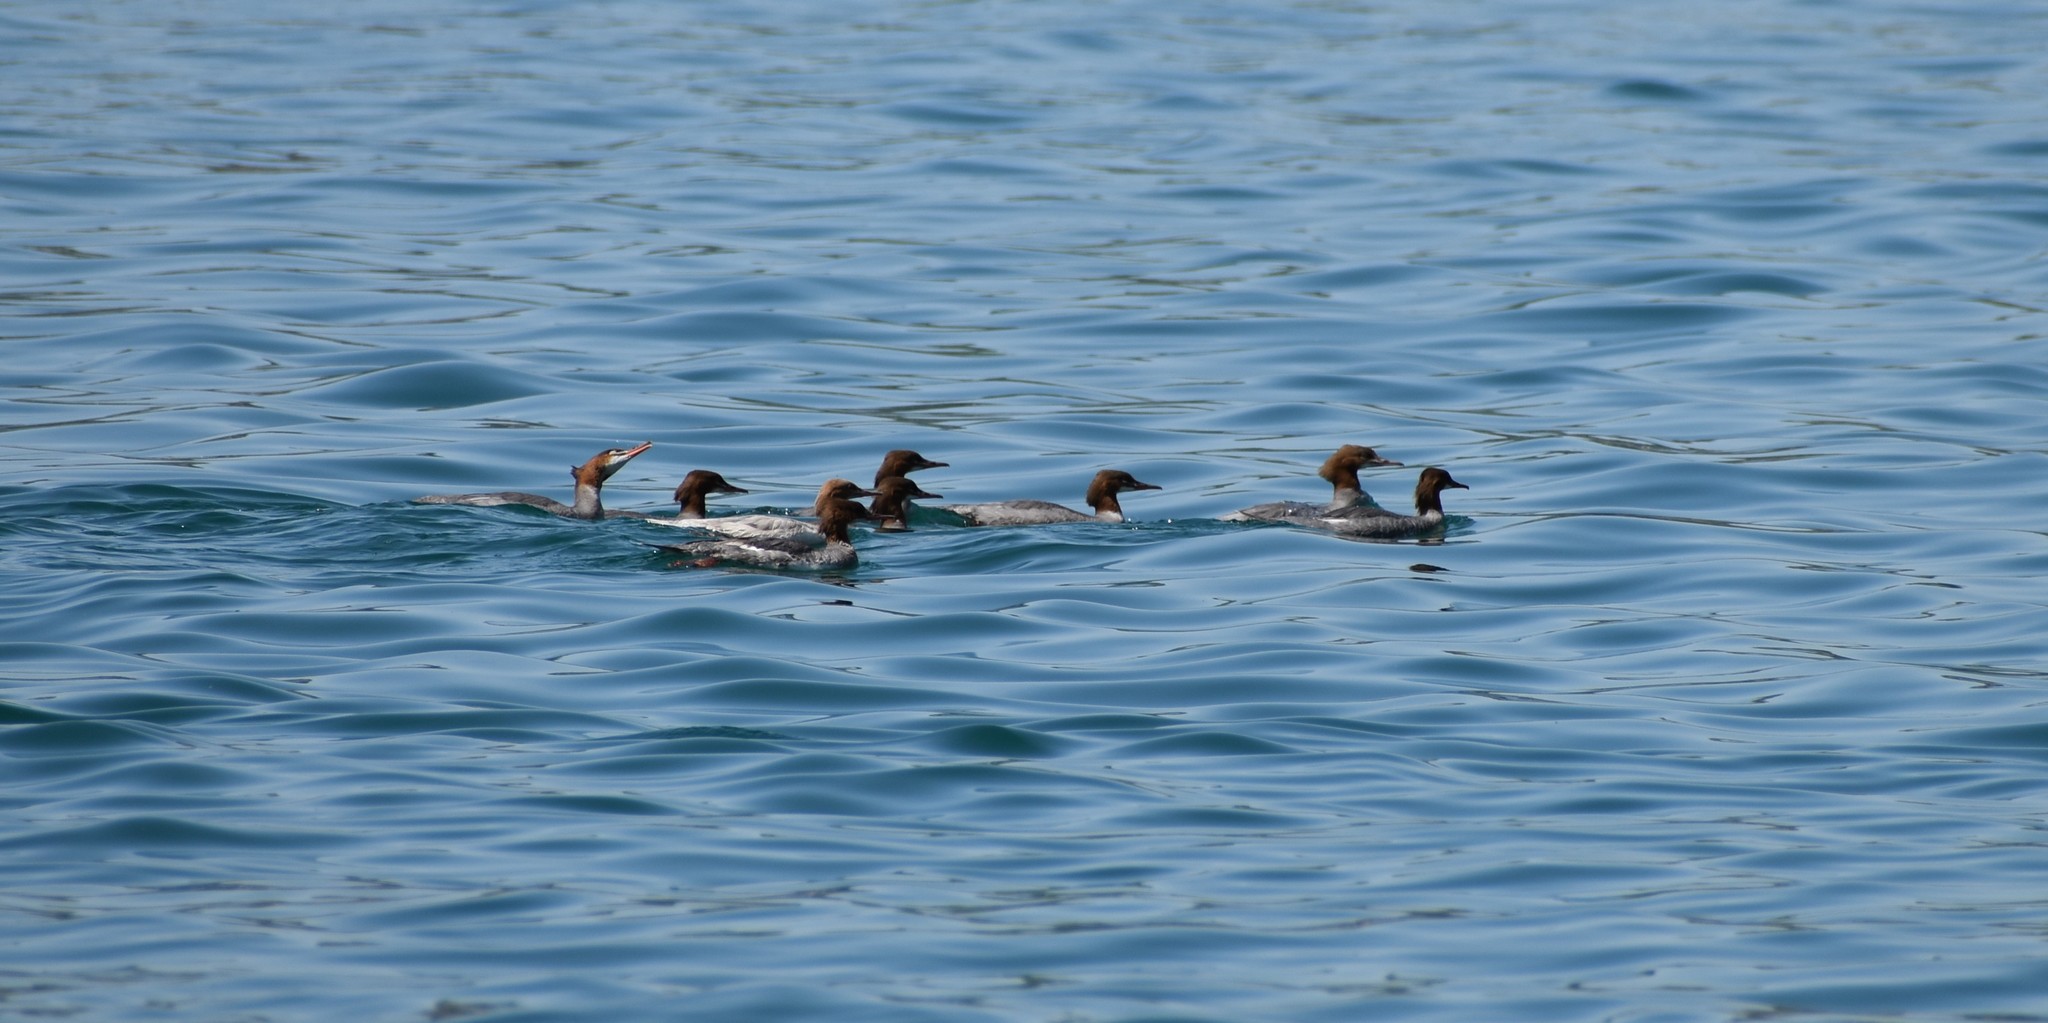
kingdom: Animalia
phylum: Chordata
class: Aves
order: Anseriformes
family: Anatidae
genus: Mergus
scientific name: Mergus merganser
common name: Common merganser
